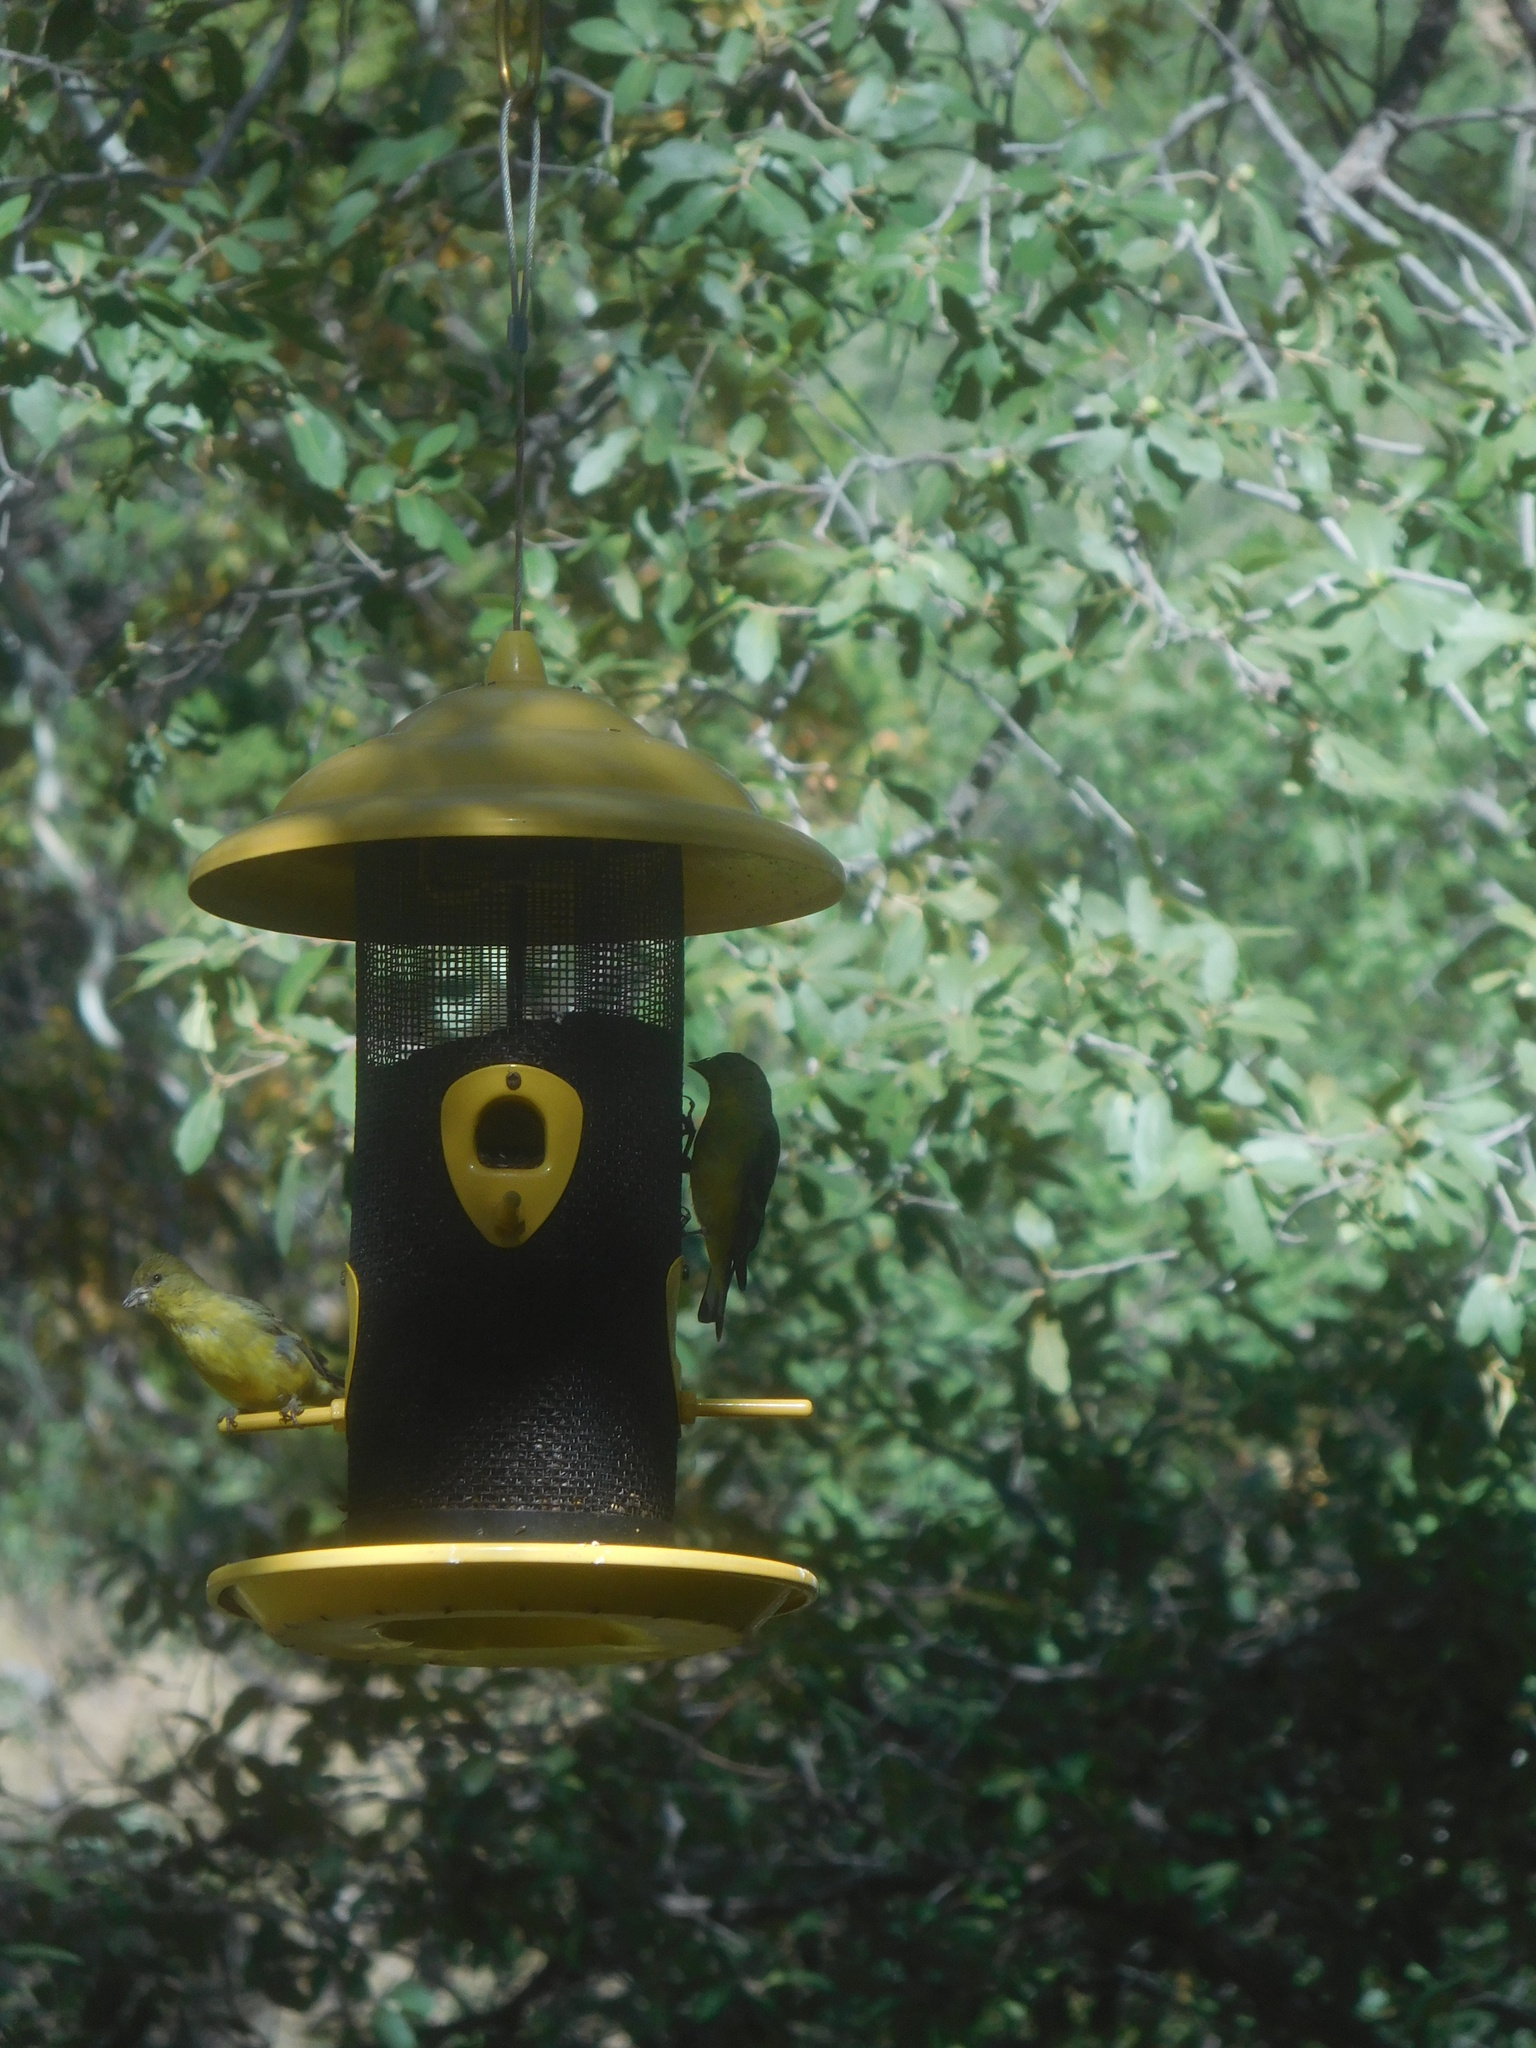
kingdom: Animalia
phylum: Chordata
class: Aves
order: Passeriformes
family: Fringillidae
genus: Spinus
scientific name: Spinus psaltria
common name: Lesser goldfinch
